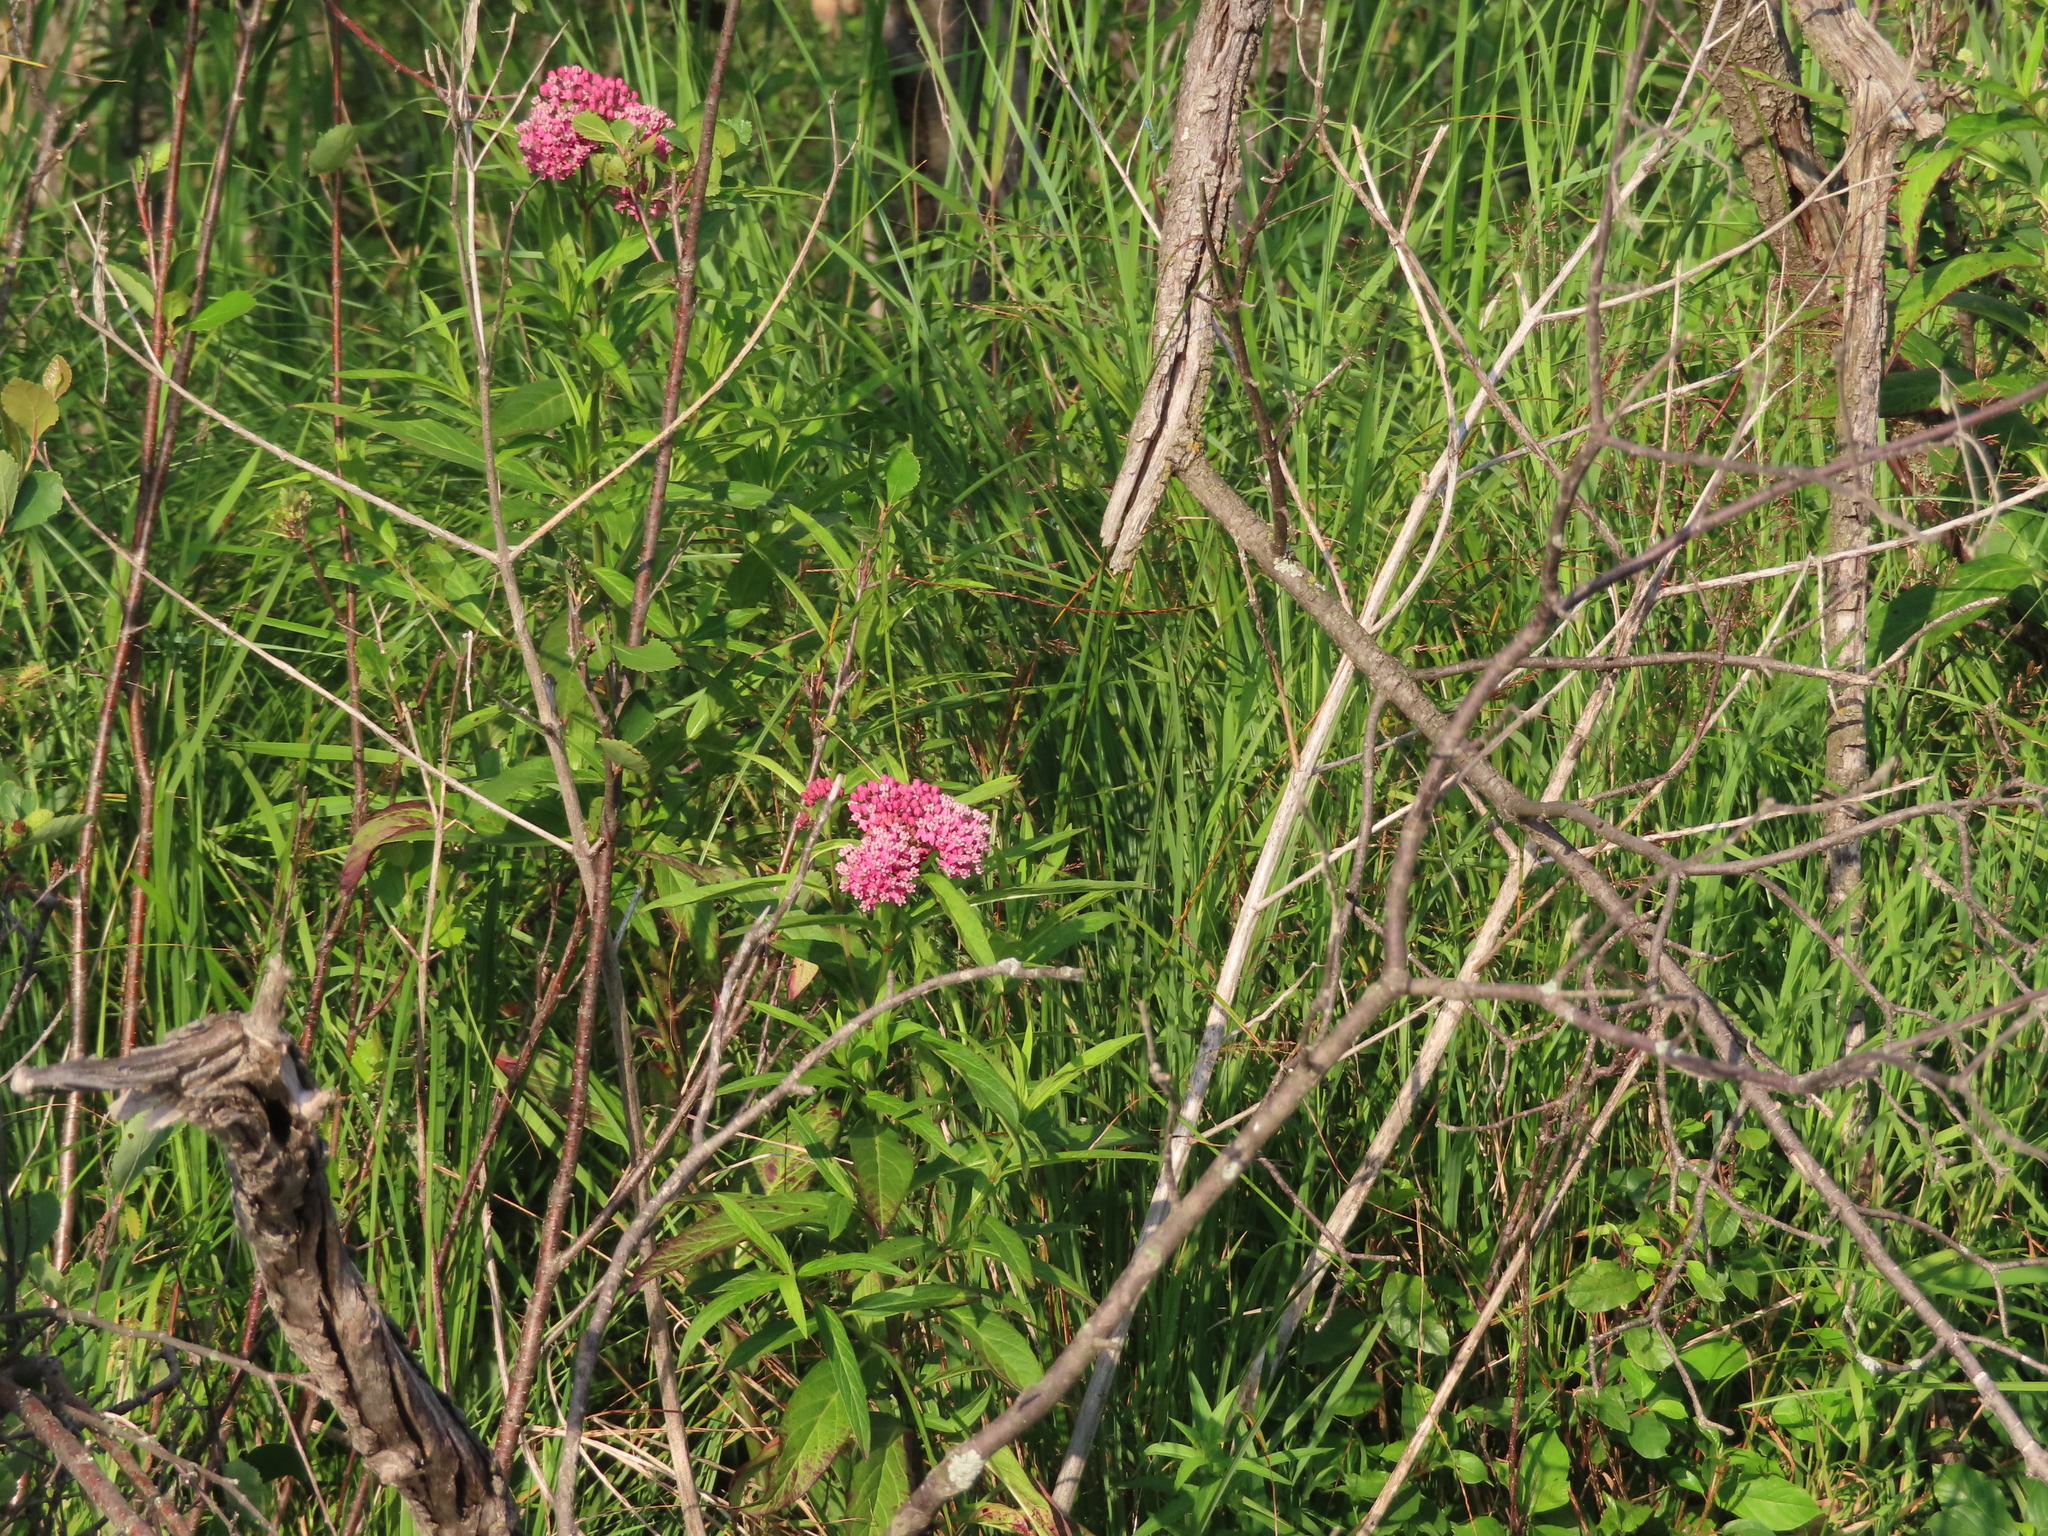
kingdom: Plantae
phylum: Tracheophyta
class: Magnoliopsida
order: Gentianales
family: Apocynaceae
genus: Asclepias
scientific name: Asclepias incarnata
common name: Swamp milkweed
